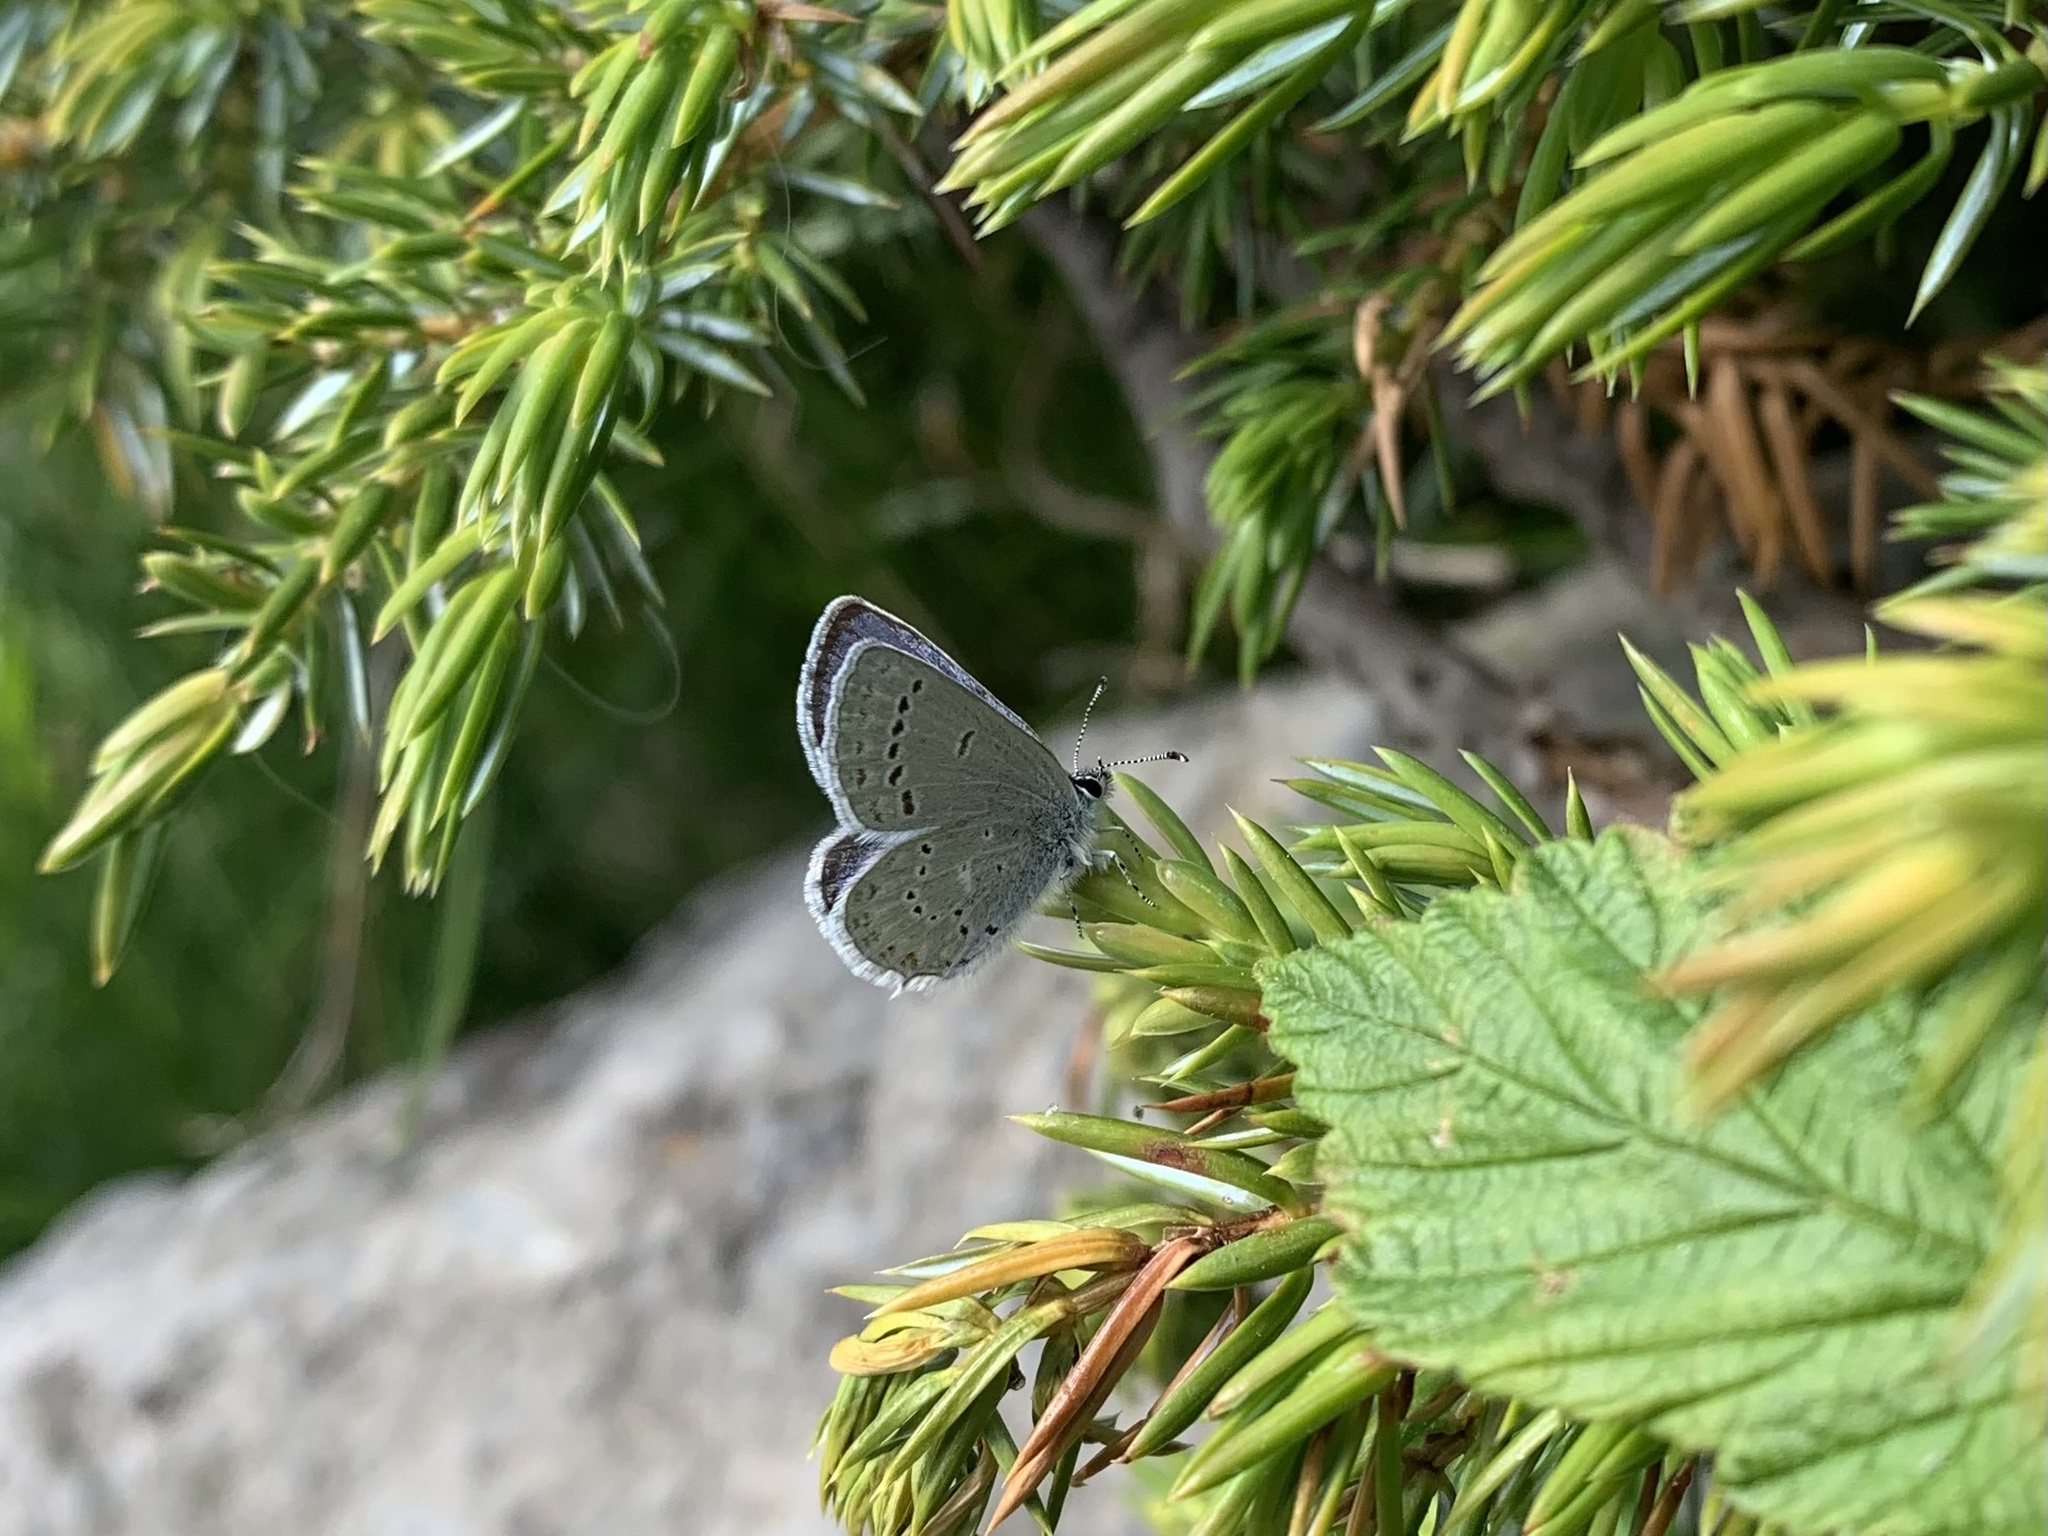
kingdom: Animalia
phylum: Arthropoda
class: Insecta
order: Lepidoptera
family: Lycaenidae
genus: Elkalyce
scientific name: Elkalyce amyntula
